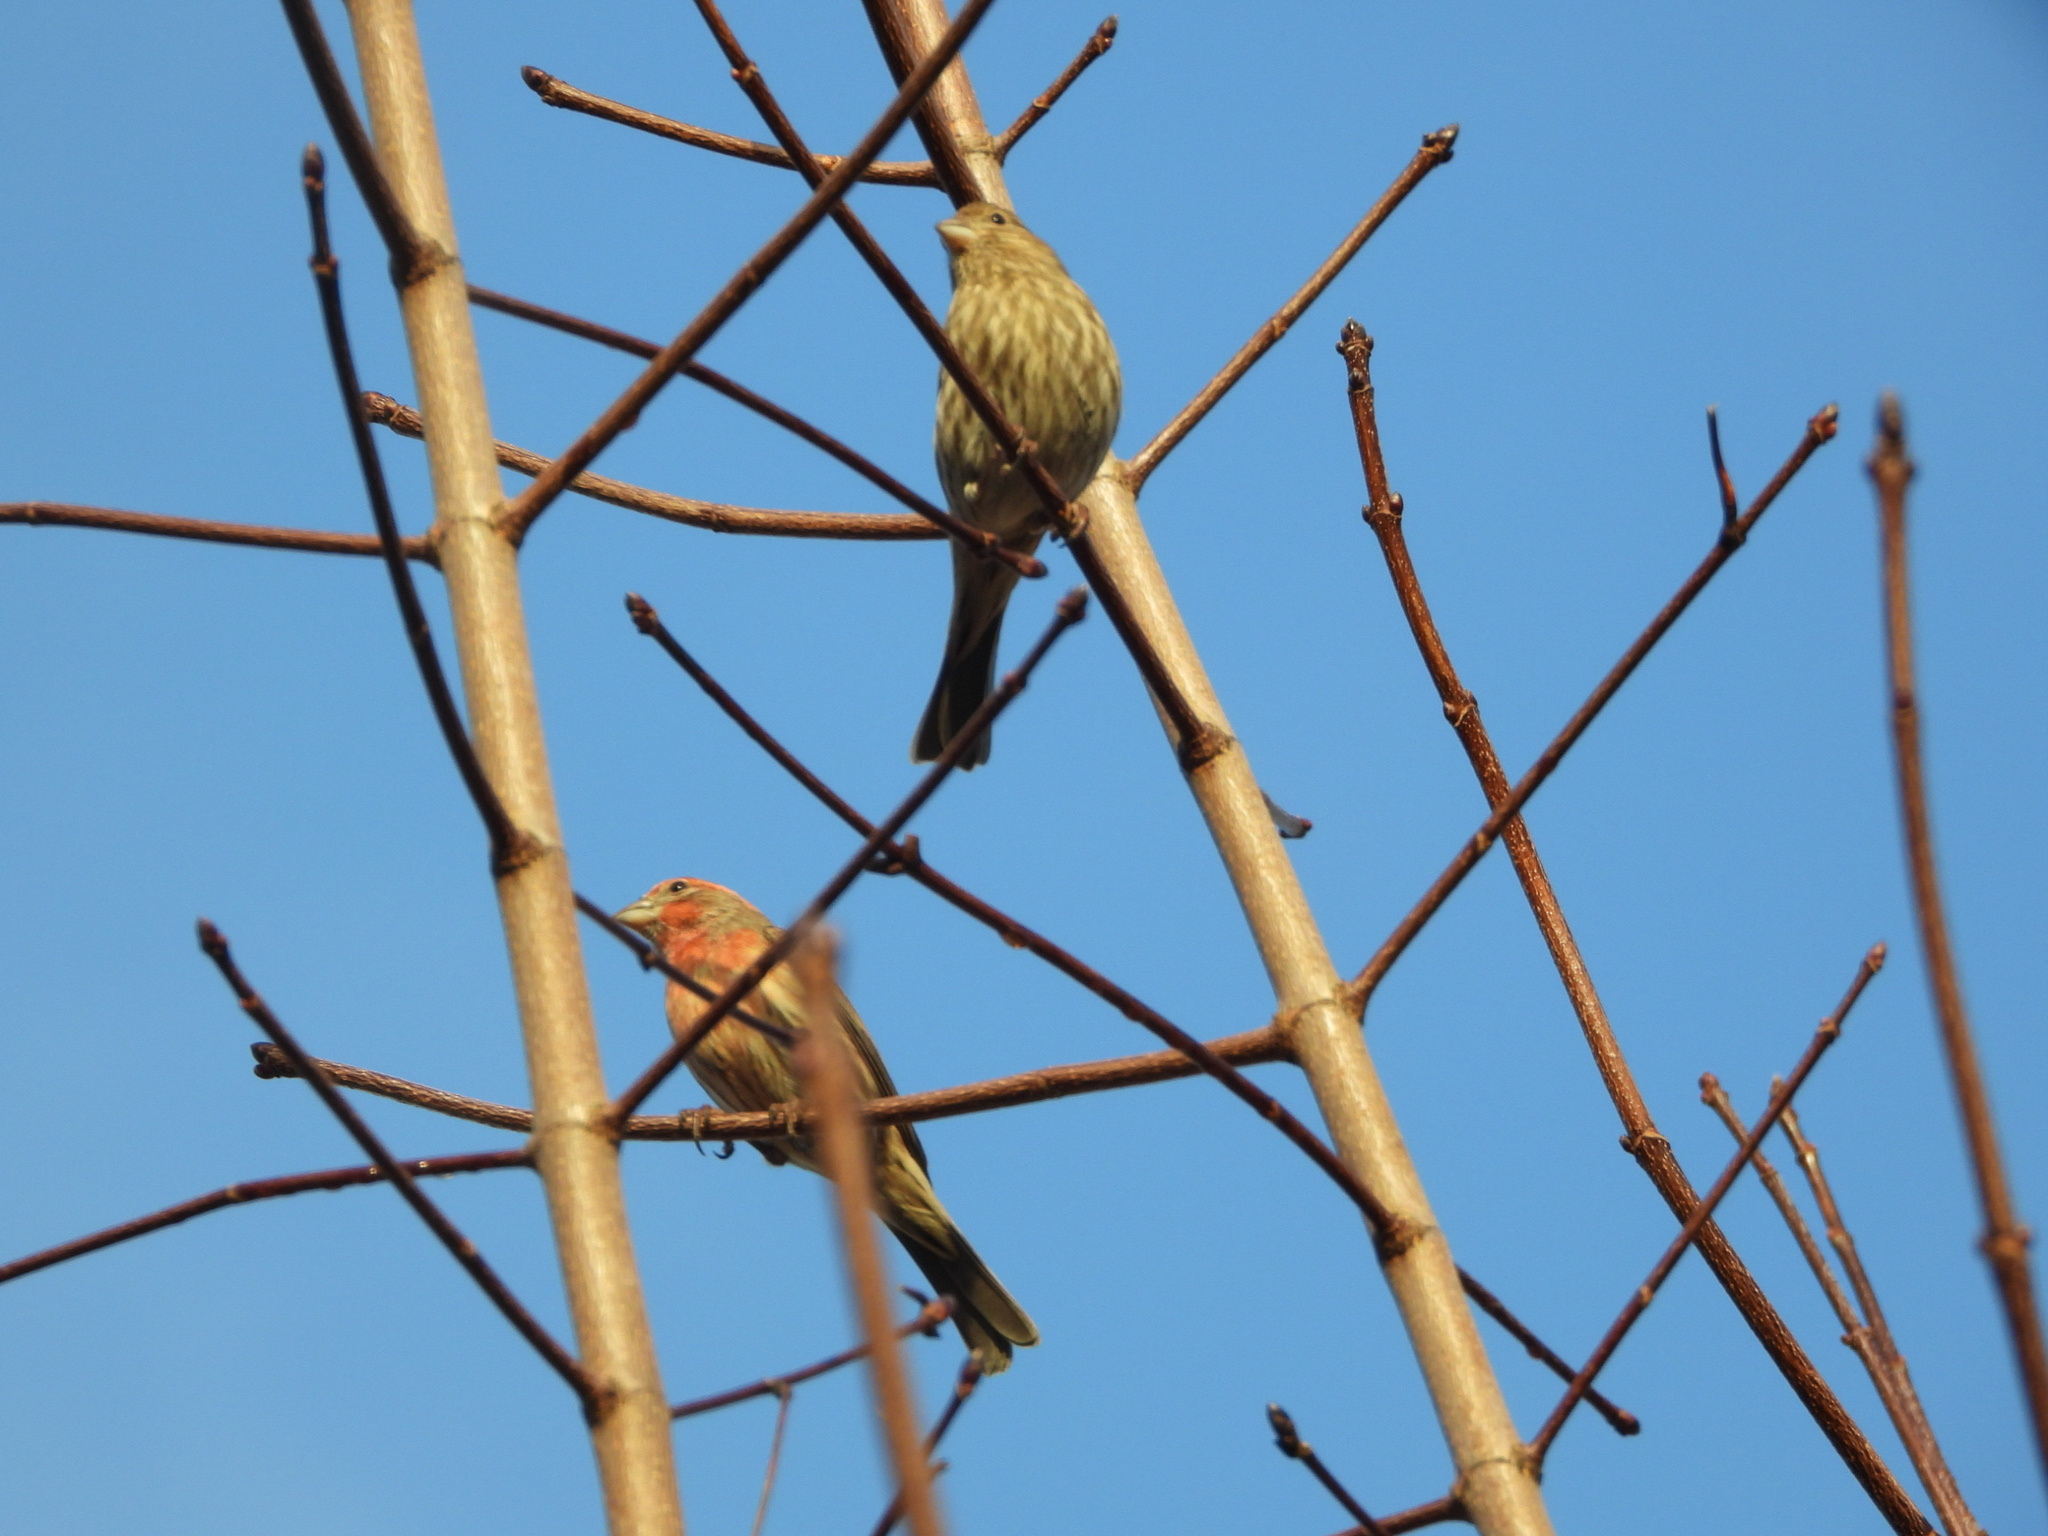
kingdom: Animalia
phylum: Chordata
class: Aves
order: Passeriformes
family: Fringillidae
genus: Haemorhous
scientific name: Haemorhous mexicanus
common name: House finch
